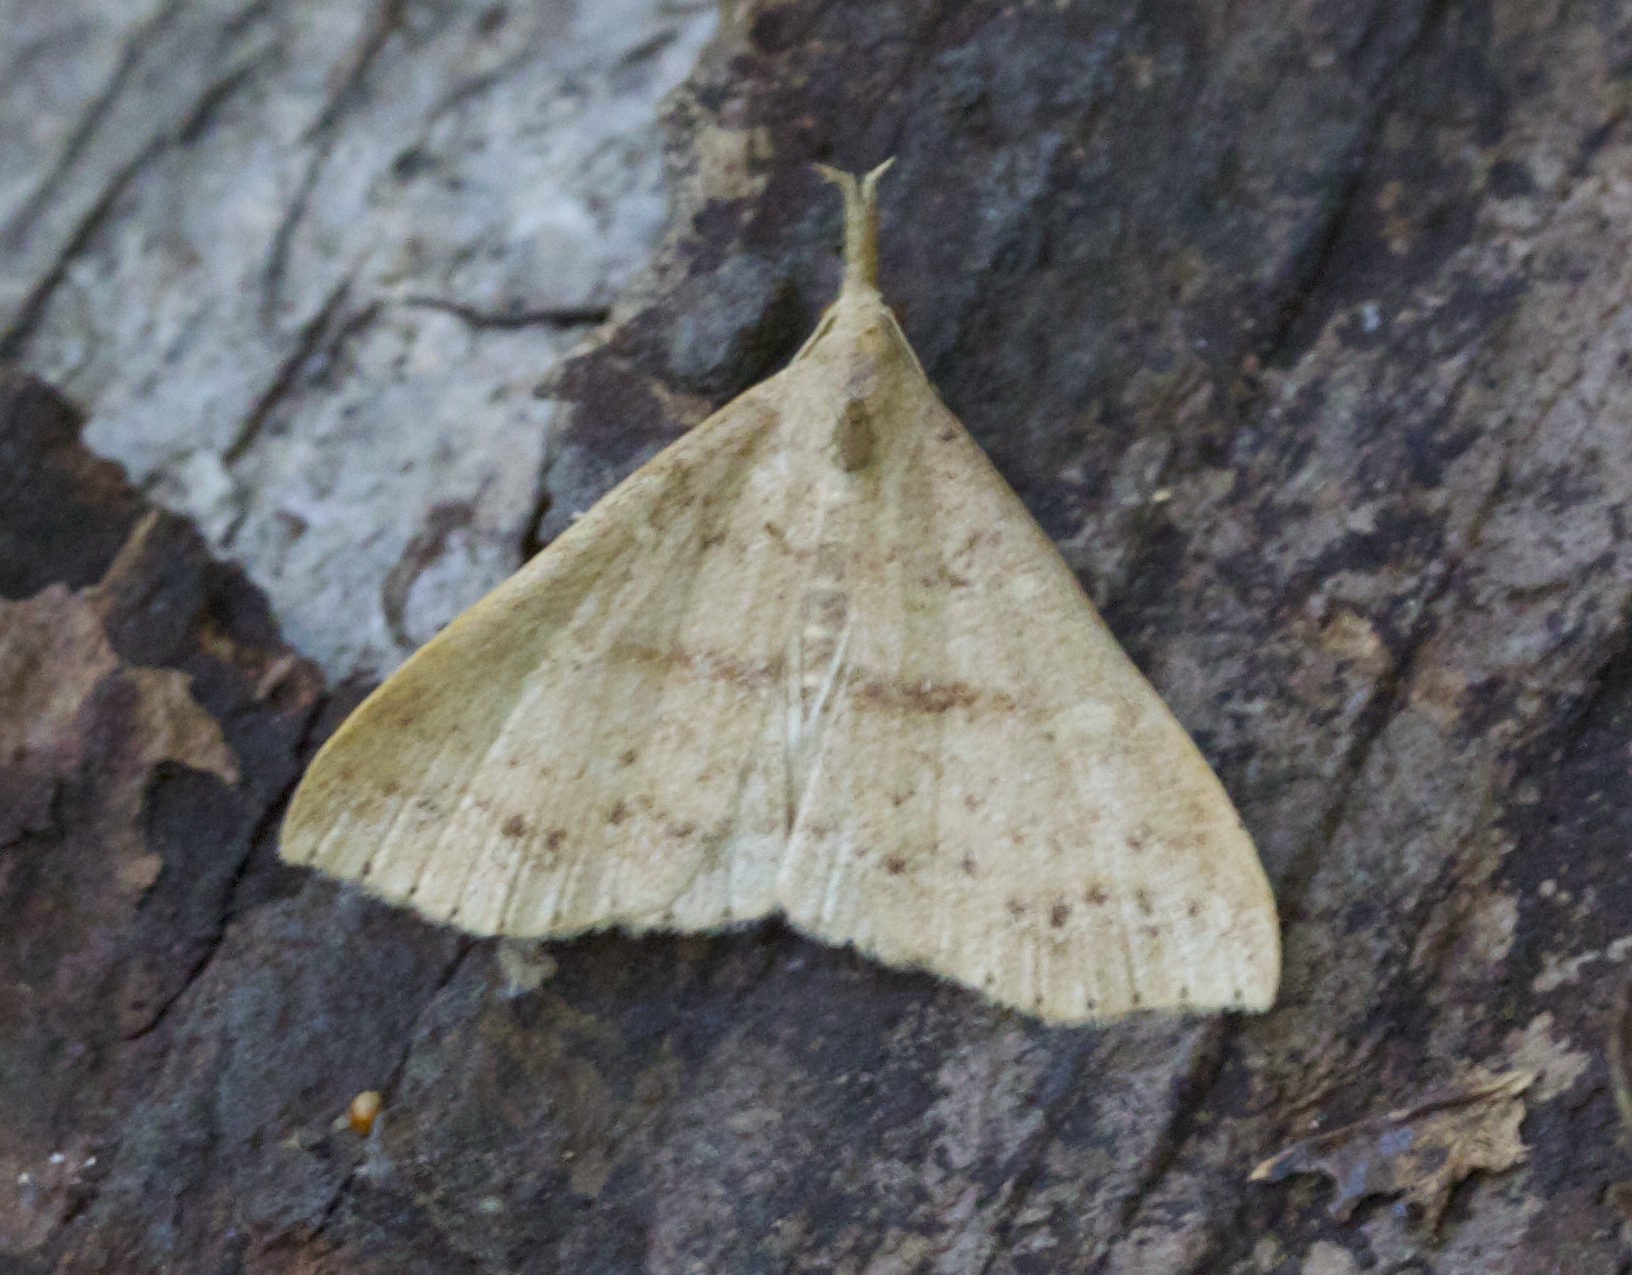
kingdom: Animalia
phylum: Arthropoda
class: Insecta
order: Lepidoptera
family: Erebidae
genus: Renia
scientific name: Renia salusalis
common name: Dotted renia moth
